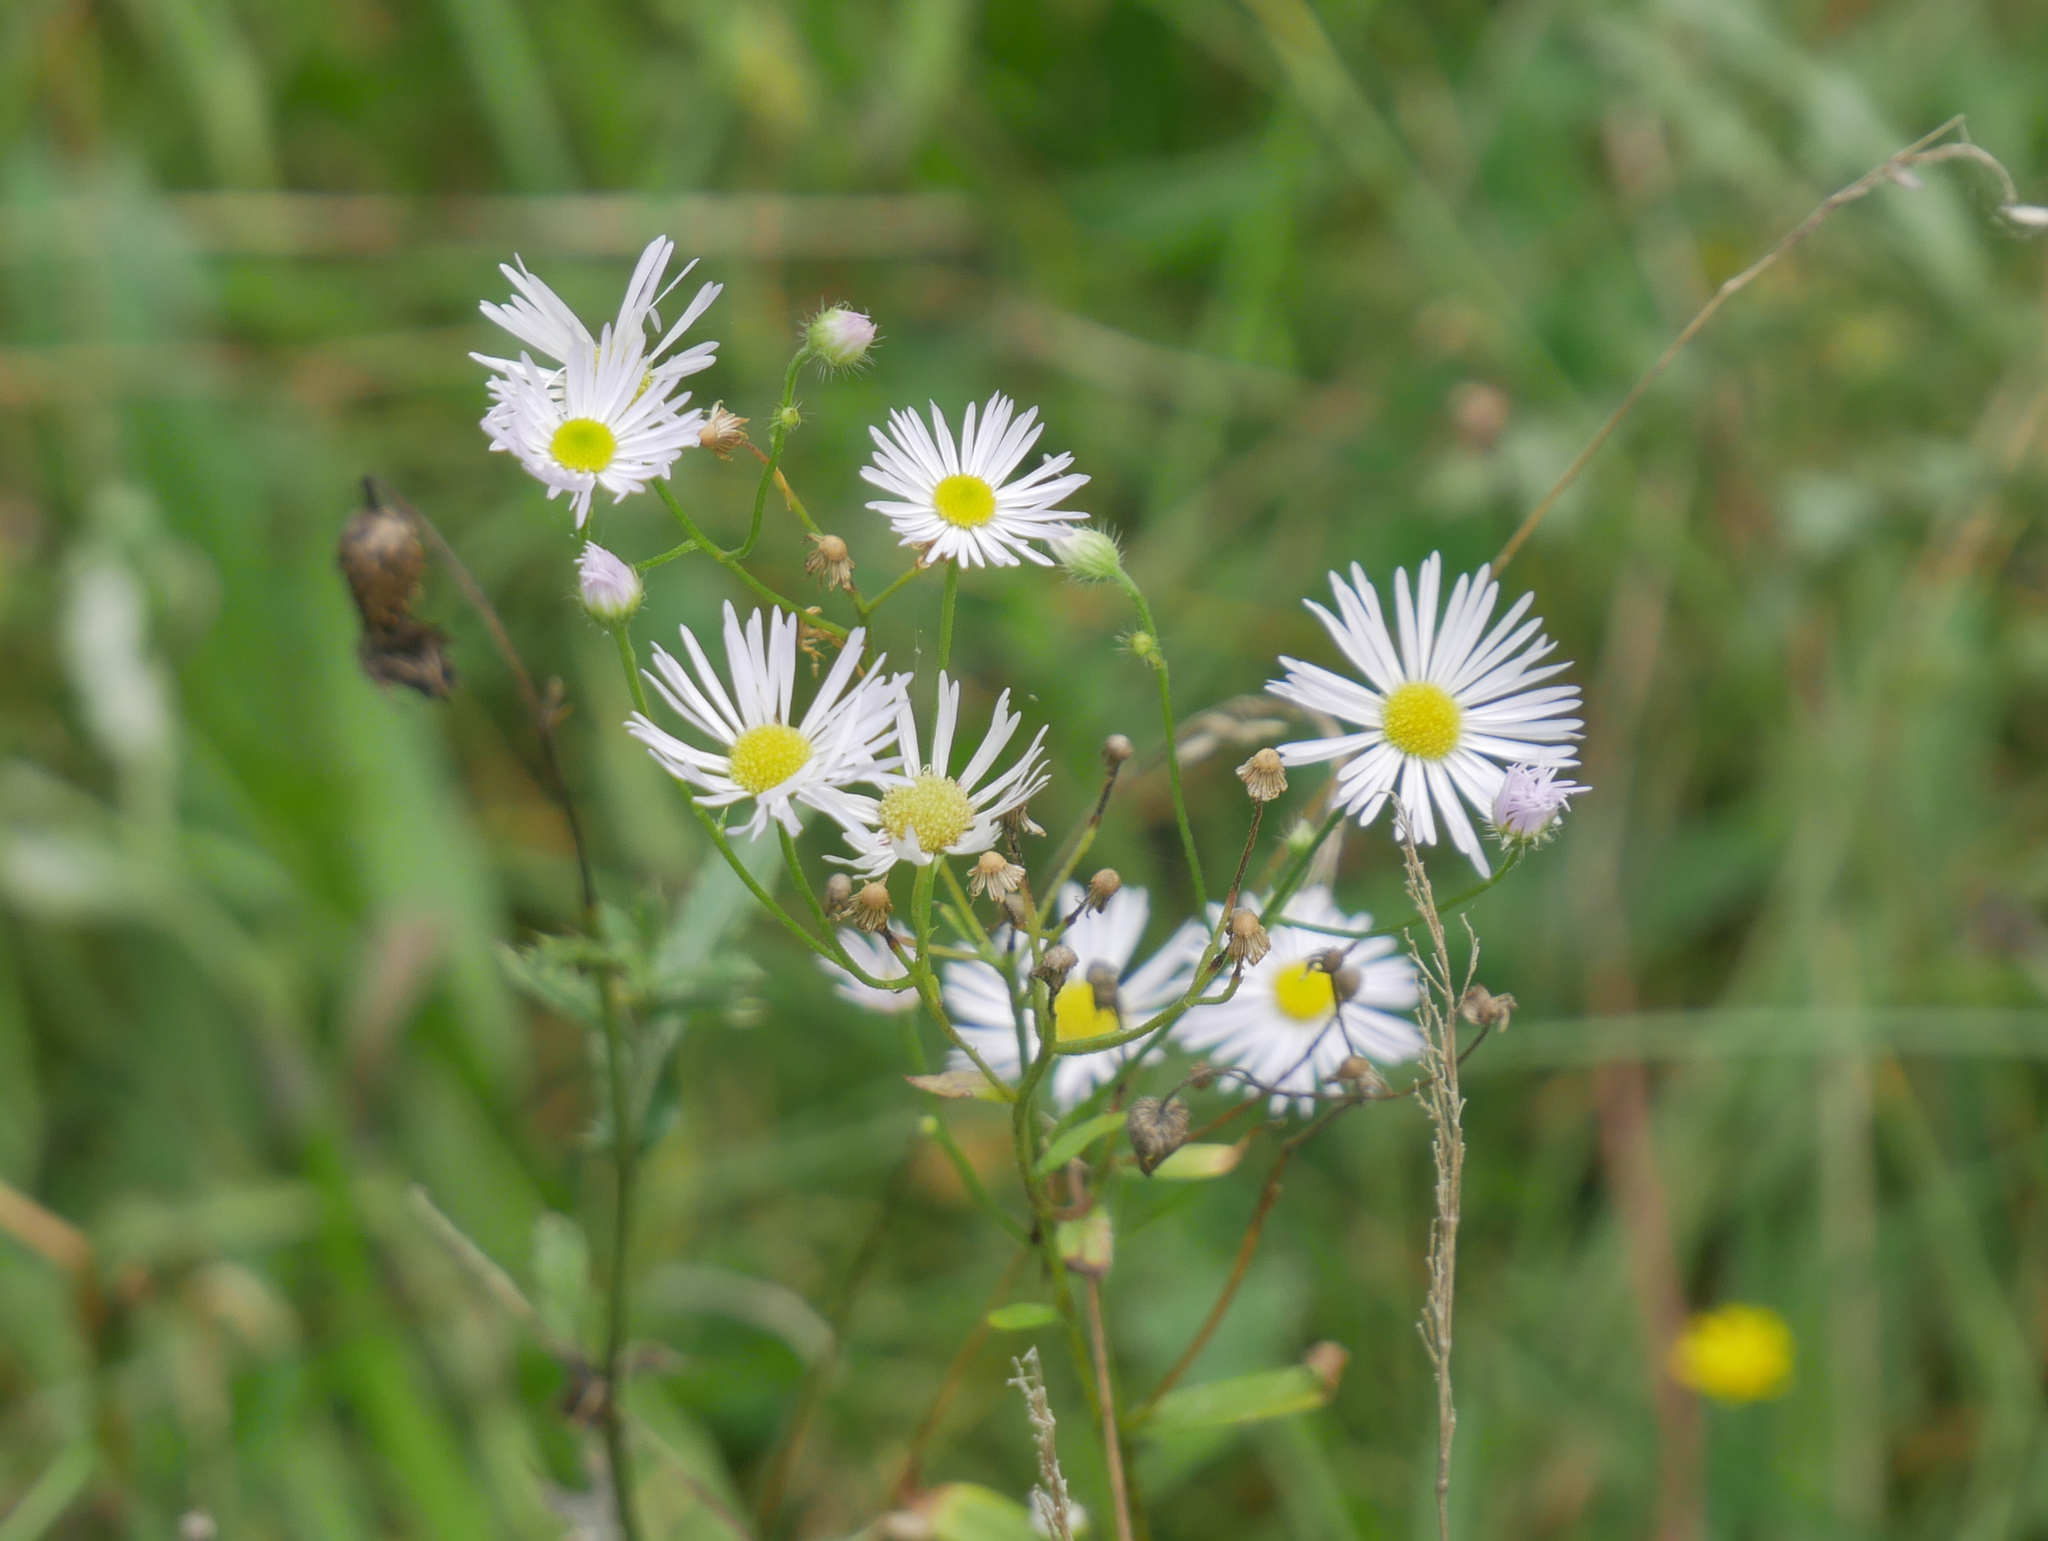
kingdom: Plantae
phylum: Tracheophyta
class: Magnoliopsida
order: Asterales
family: Asteraceae
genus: Erigeron
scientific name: Erigeron annuus
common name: Tall fleabane
